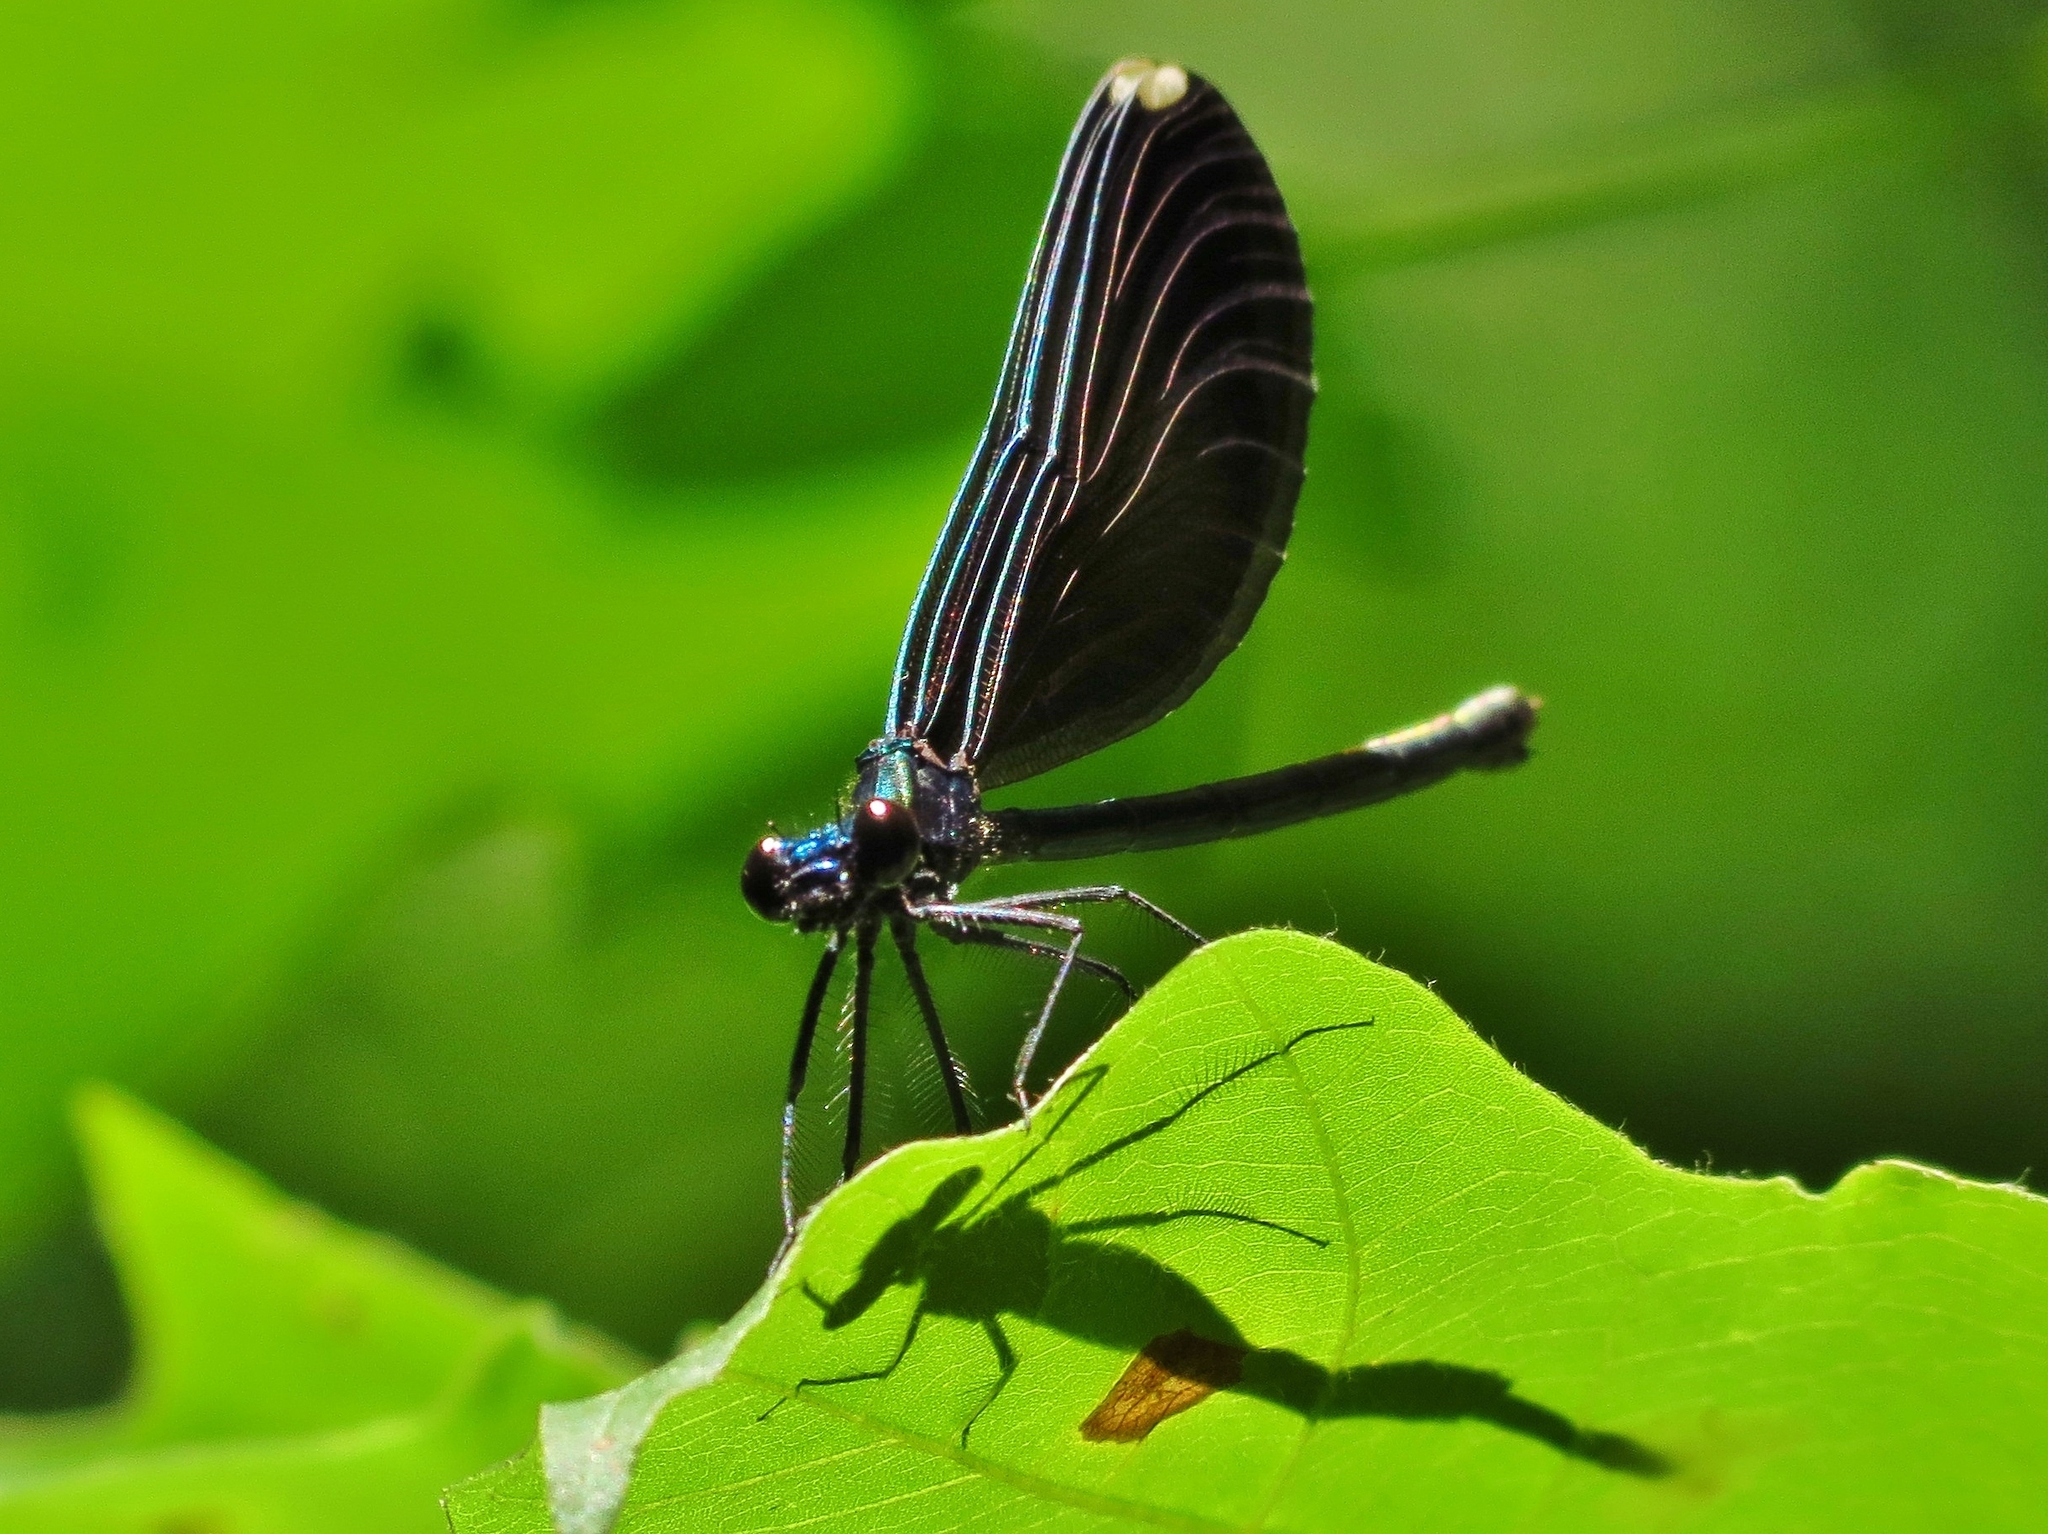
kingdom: Animalia
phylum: Arthropoda
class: Insecta
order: Odonata
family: Calopterygidae
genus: Calopteryx
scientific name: Calopteryx maculata
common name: Ebony jewelwing
